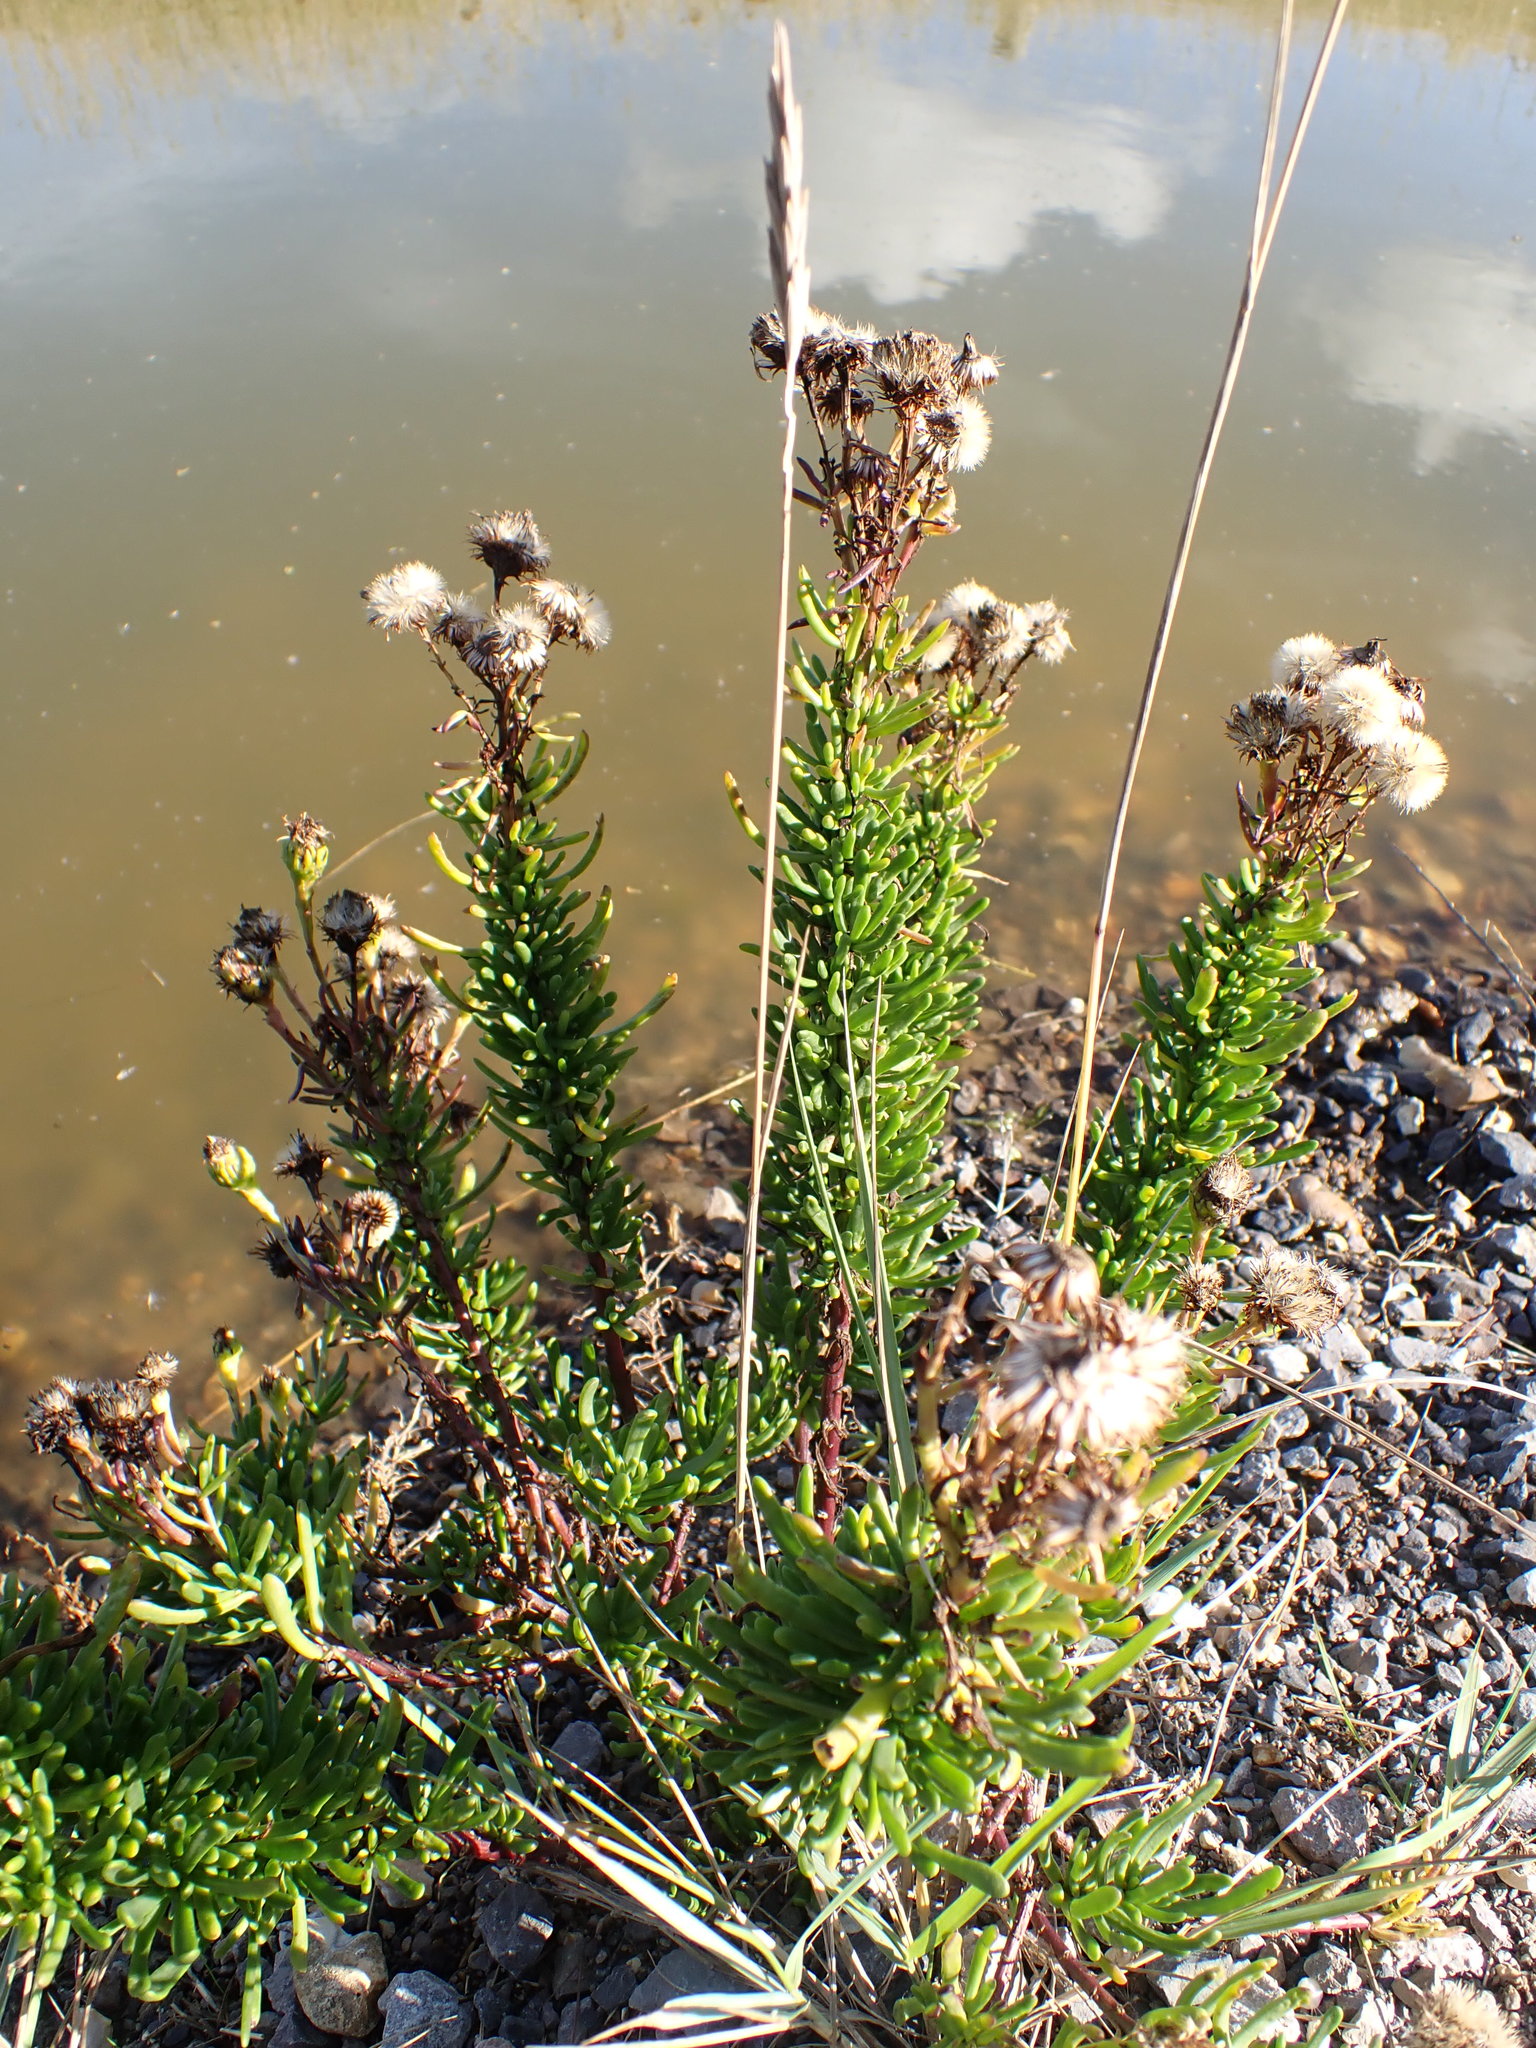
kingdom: Plantae
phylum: Tracheophyta
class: Magnoliopsida
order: Asterales
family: Asteraceae
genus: Limbarda
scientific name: Limbarda crithmoides
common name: Golden samphire
